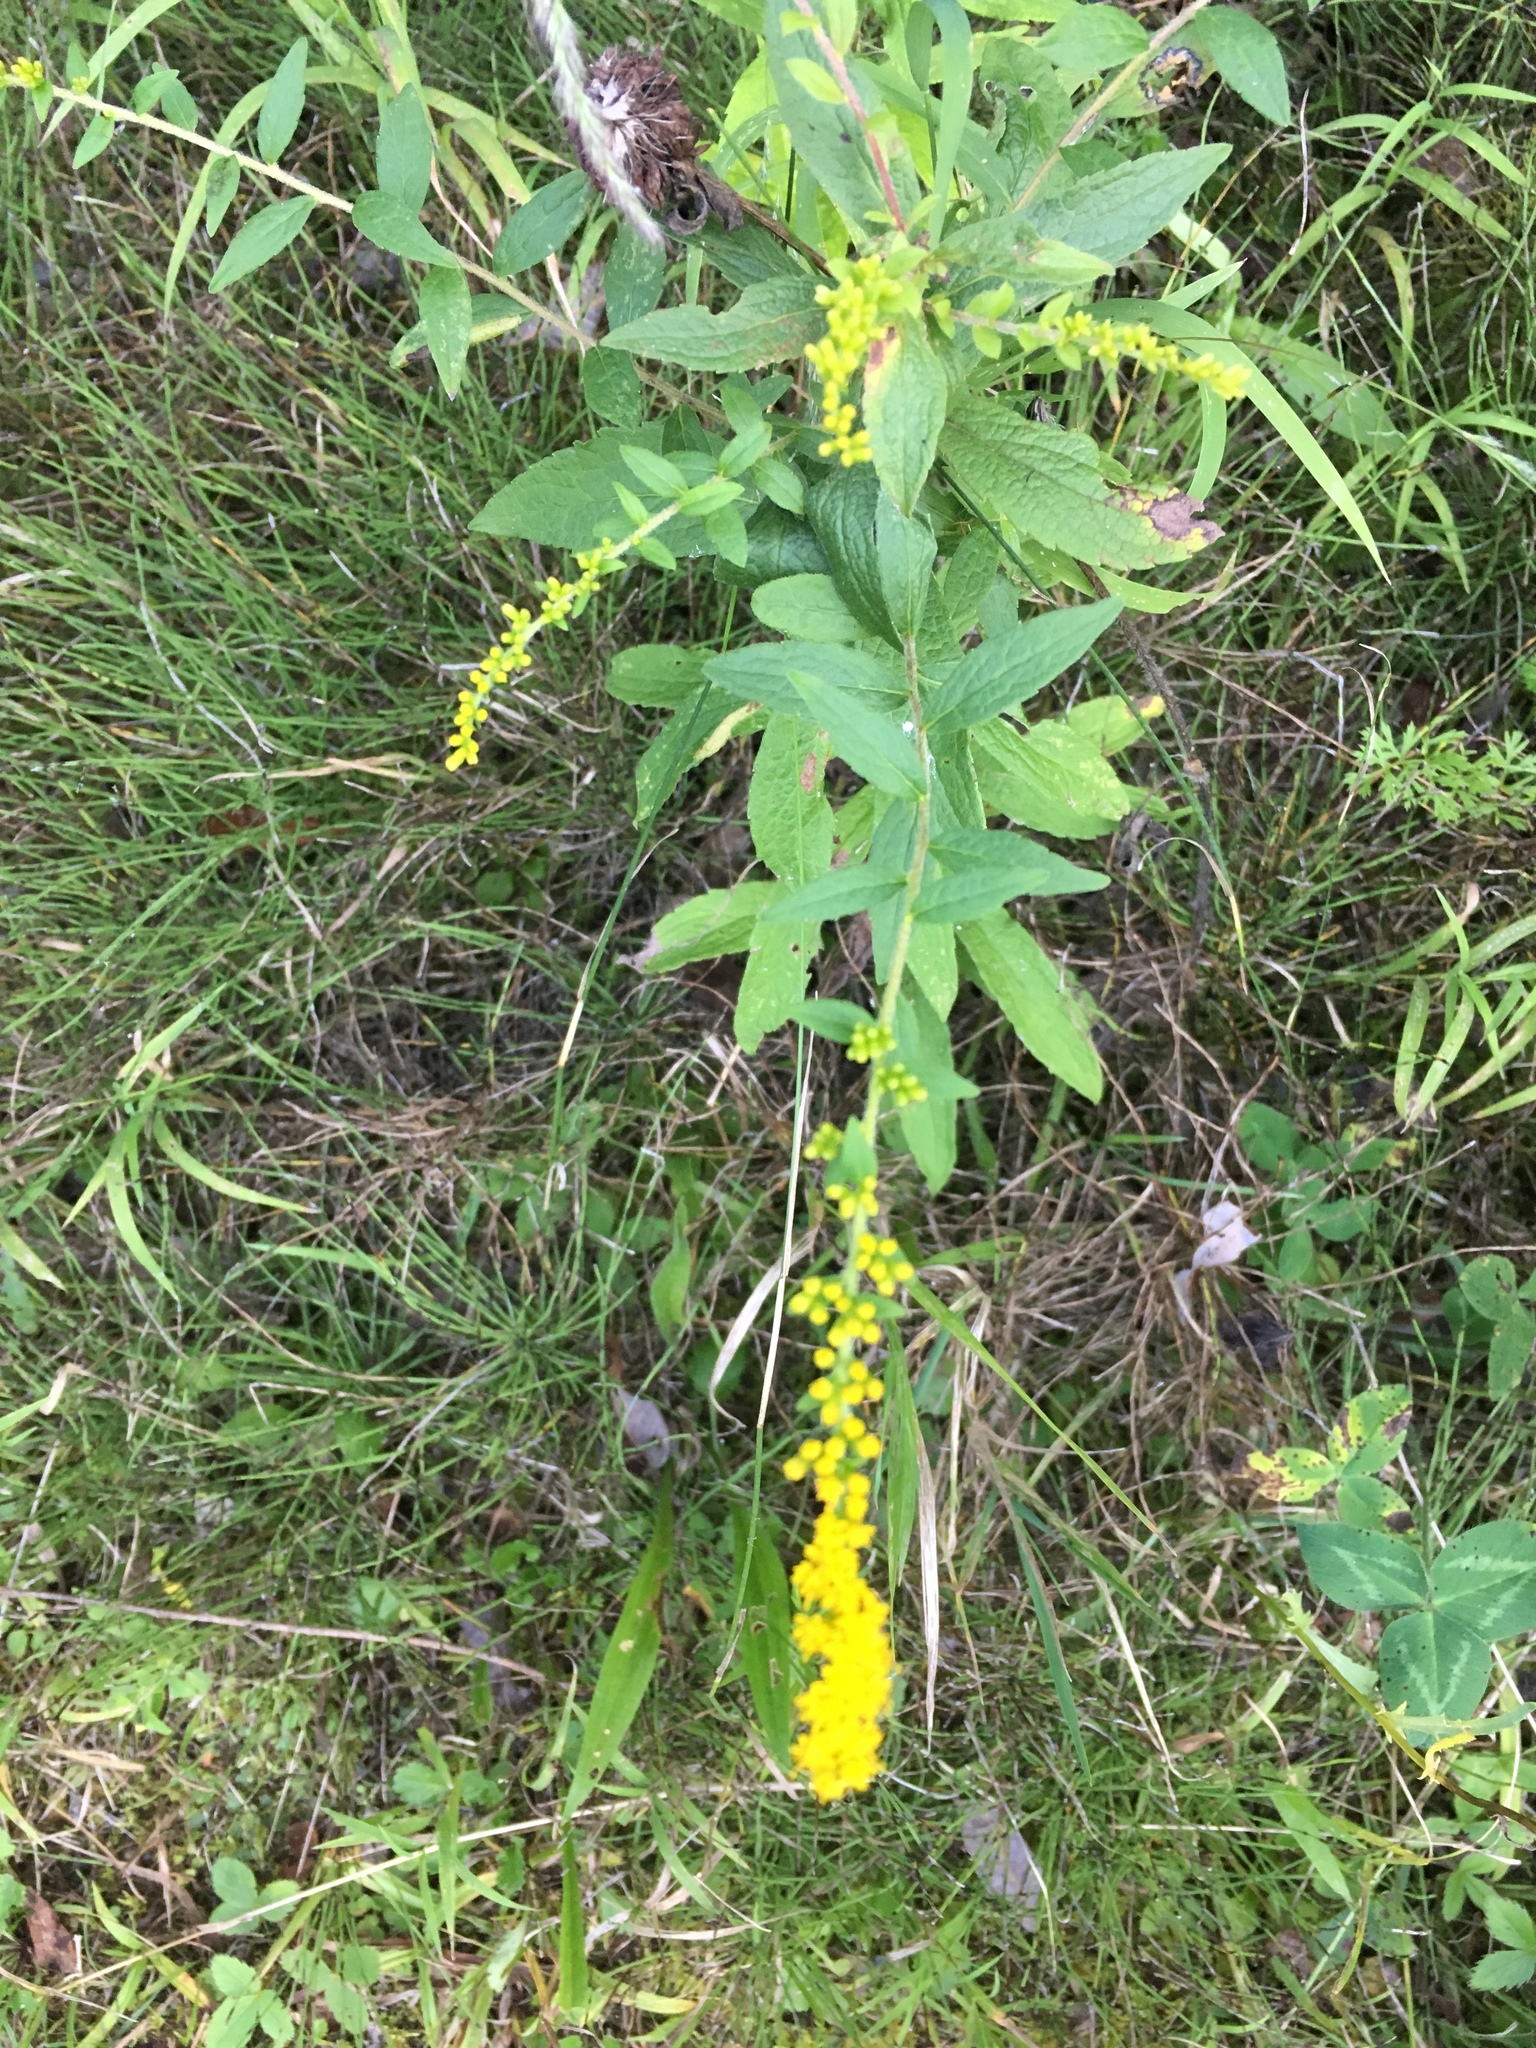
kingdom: Plantae
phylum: Tracheophyta
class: Magnoliopsida
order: Asterales
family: Asteraceae
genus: Solidago
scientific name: Solidago rugosa
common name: Rough-stemmed goldenrod
